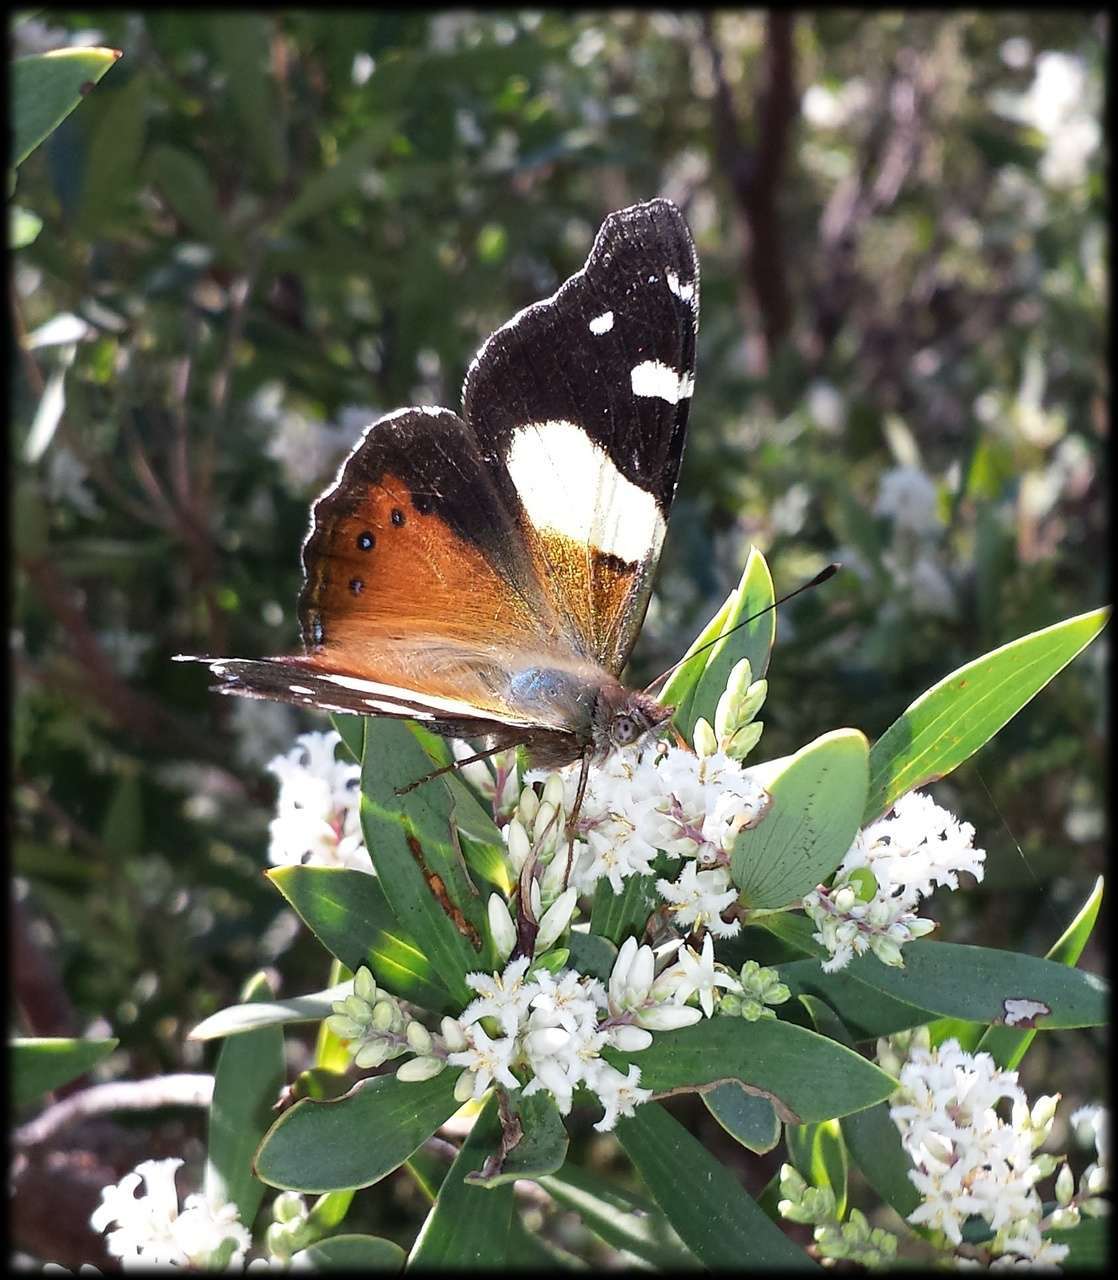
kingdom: Animalia
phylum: Arthropoda
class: Insecta
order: Lepidoptera
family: Nymphalidae
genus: Vanessa
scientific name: Vanessa itea
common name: Yellow admiral
